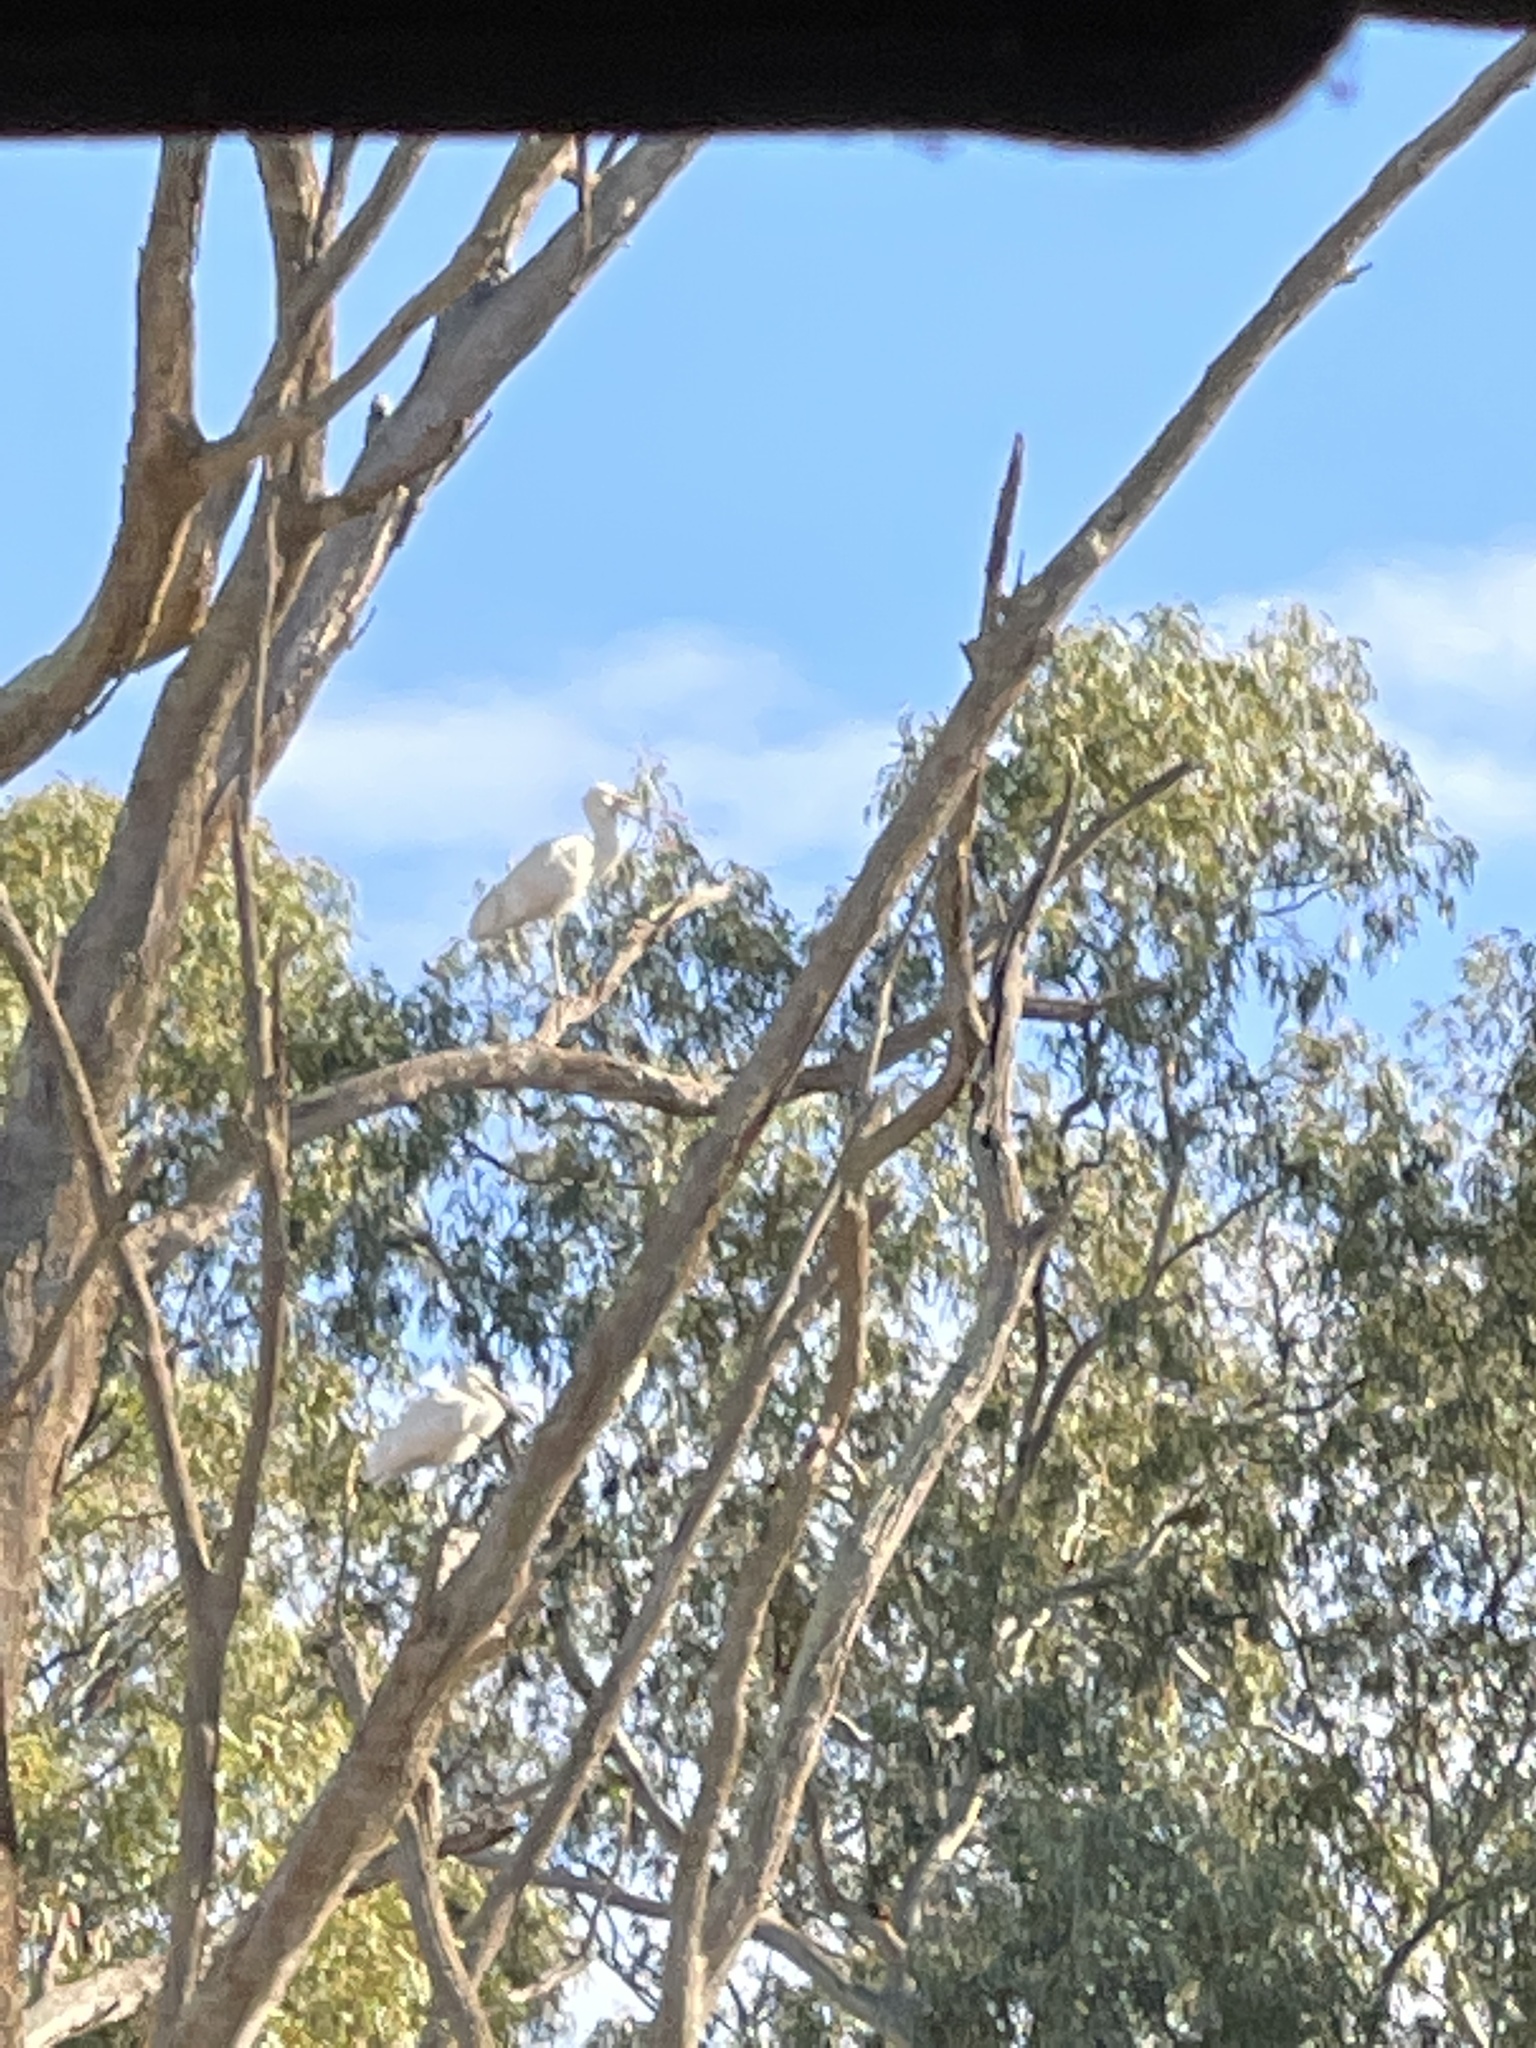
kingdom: Animalia
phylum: Chordata
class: Aves
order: Pelecaniformes
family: Threskiornithidae
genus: Platalea
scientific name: Platalea flavipes
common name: Yellow-billed spoonbill
